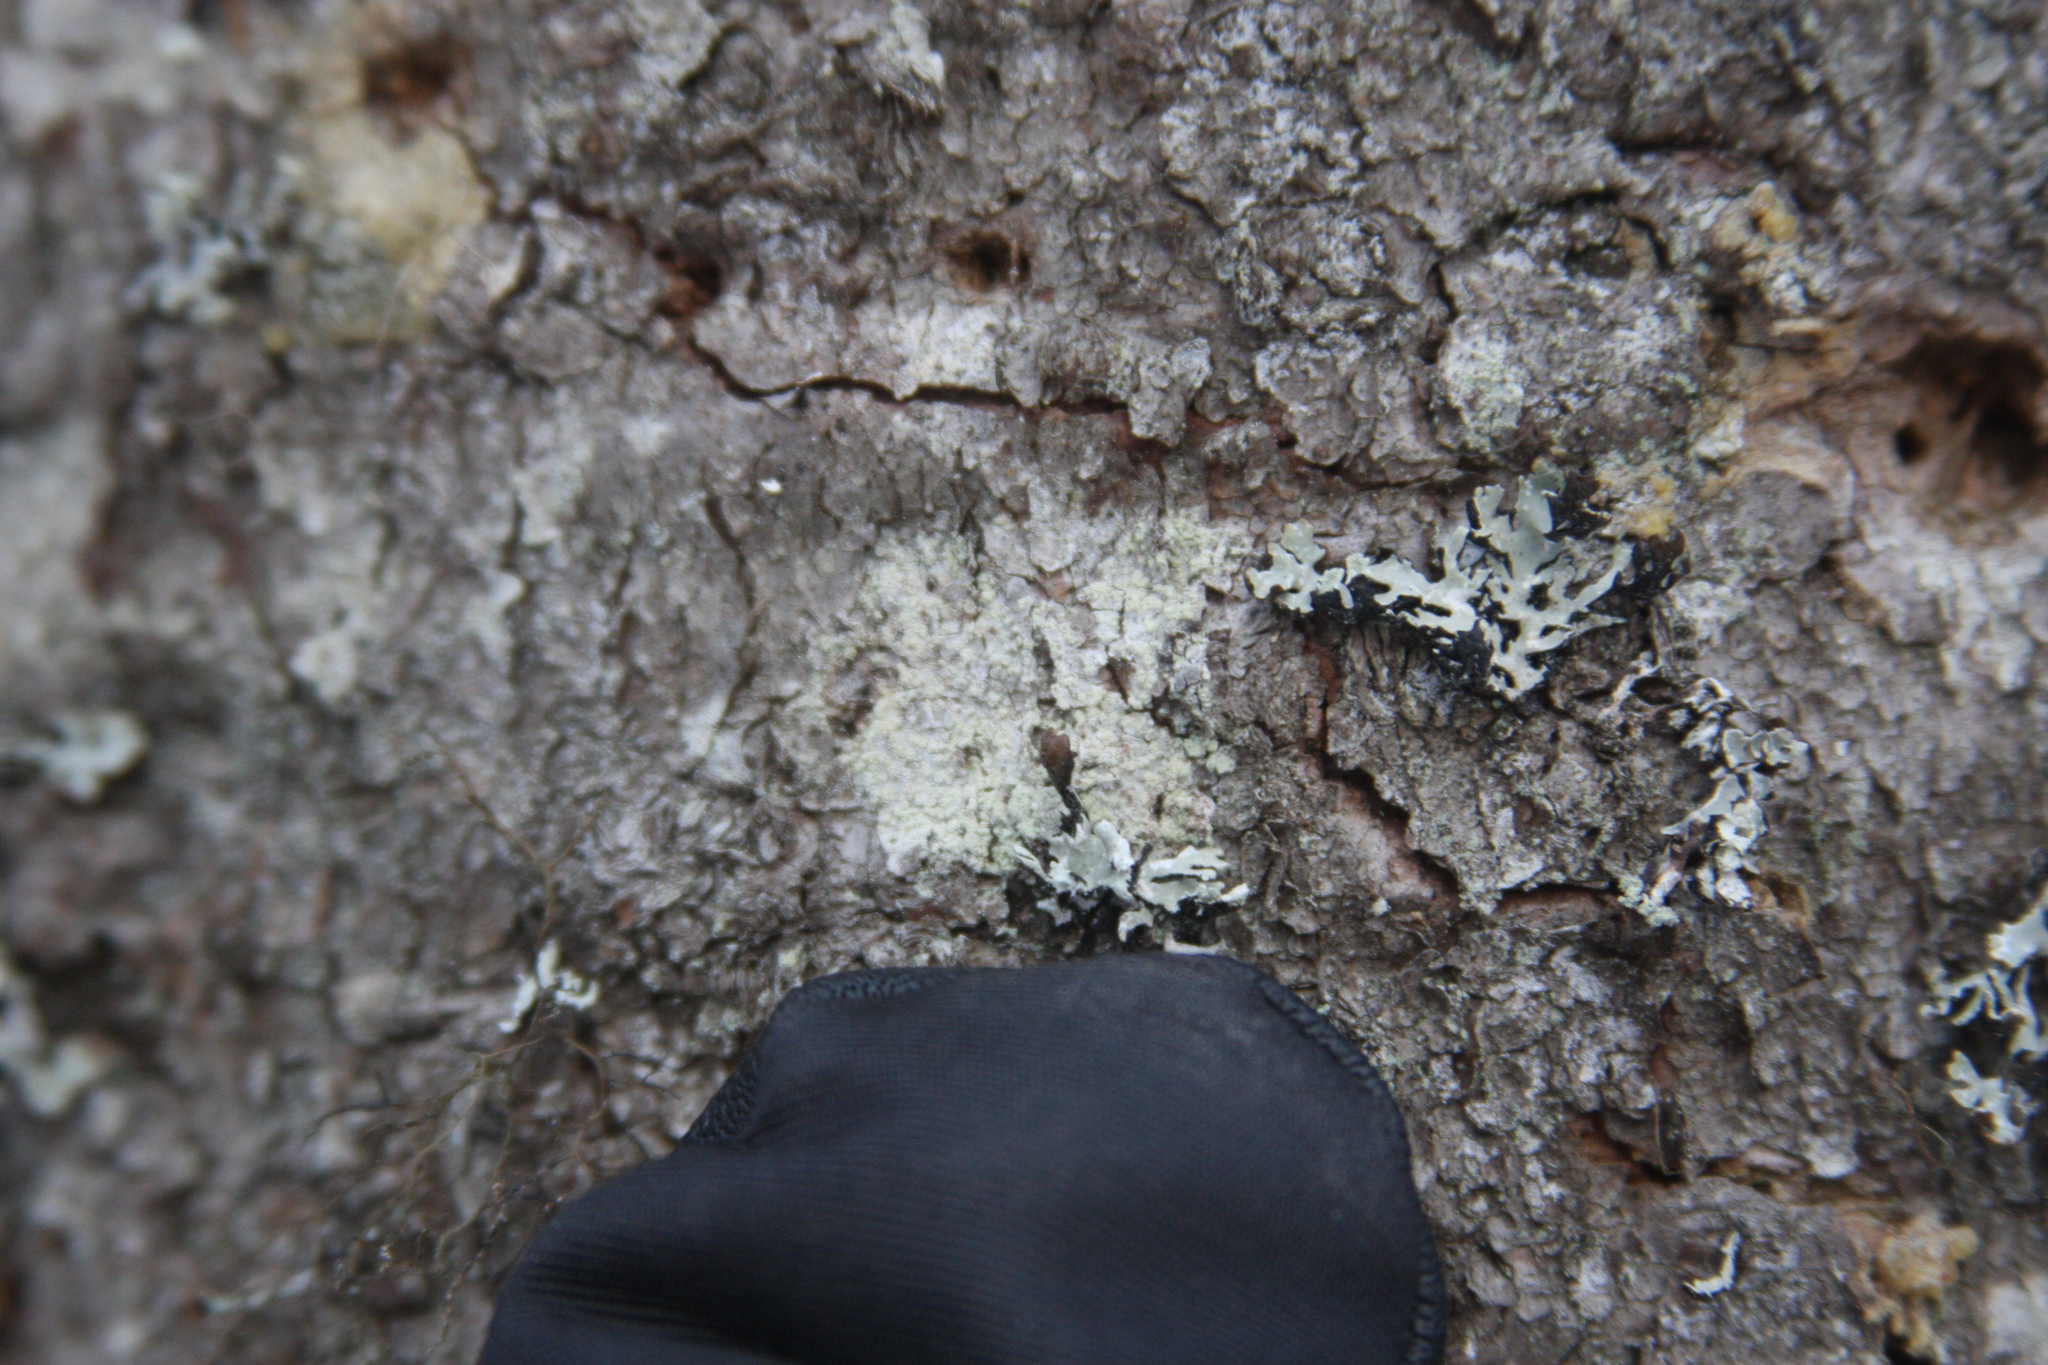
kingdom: Fungi
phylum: Ascomycota
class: Lecanoromycetes
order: Lecanorales
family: Parmeliaceae
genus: Parmelia
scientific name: Parmelia sulcata
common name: Netted shield lichen
